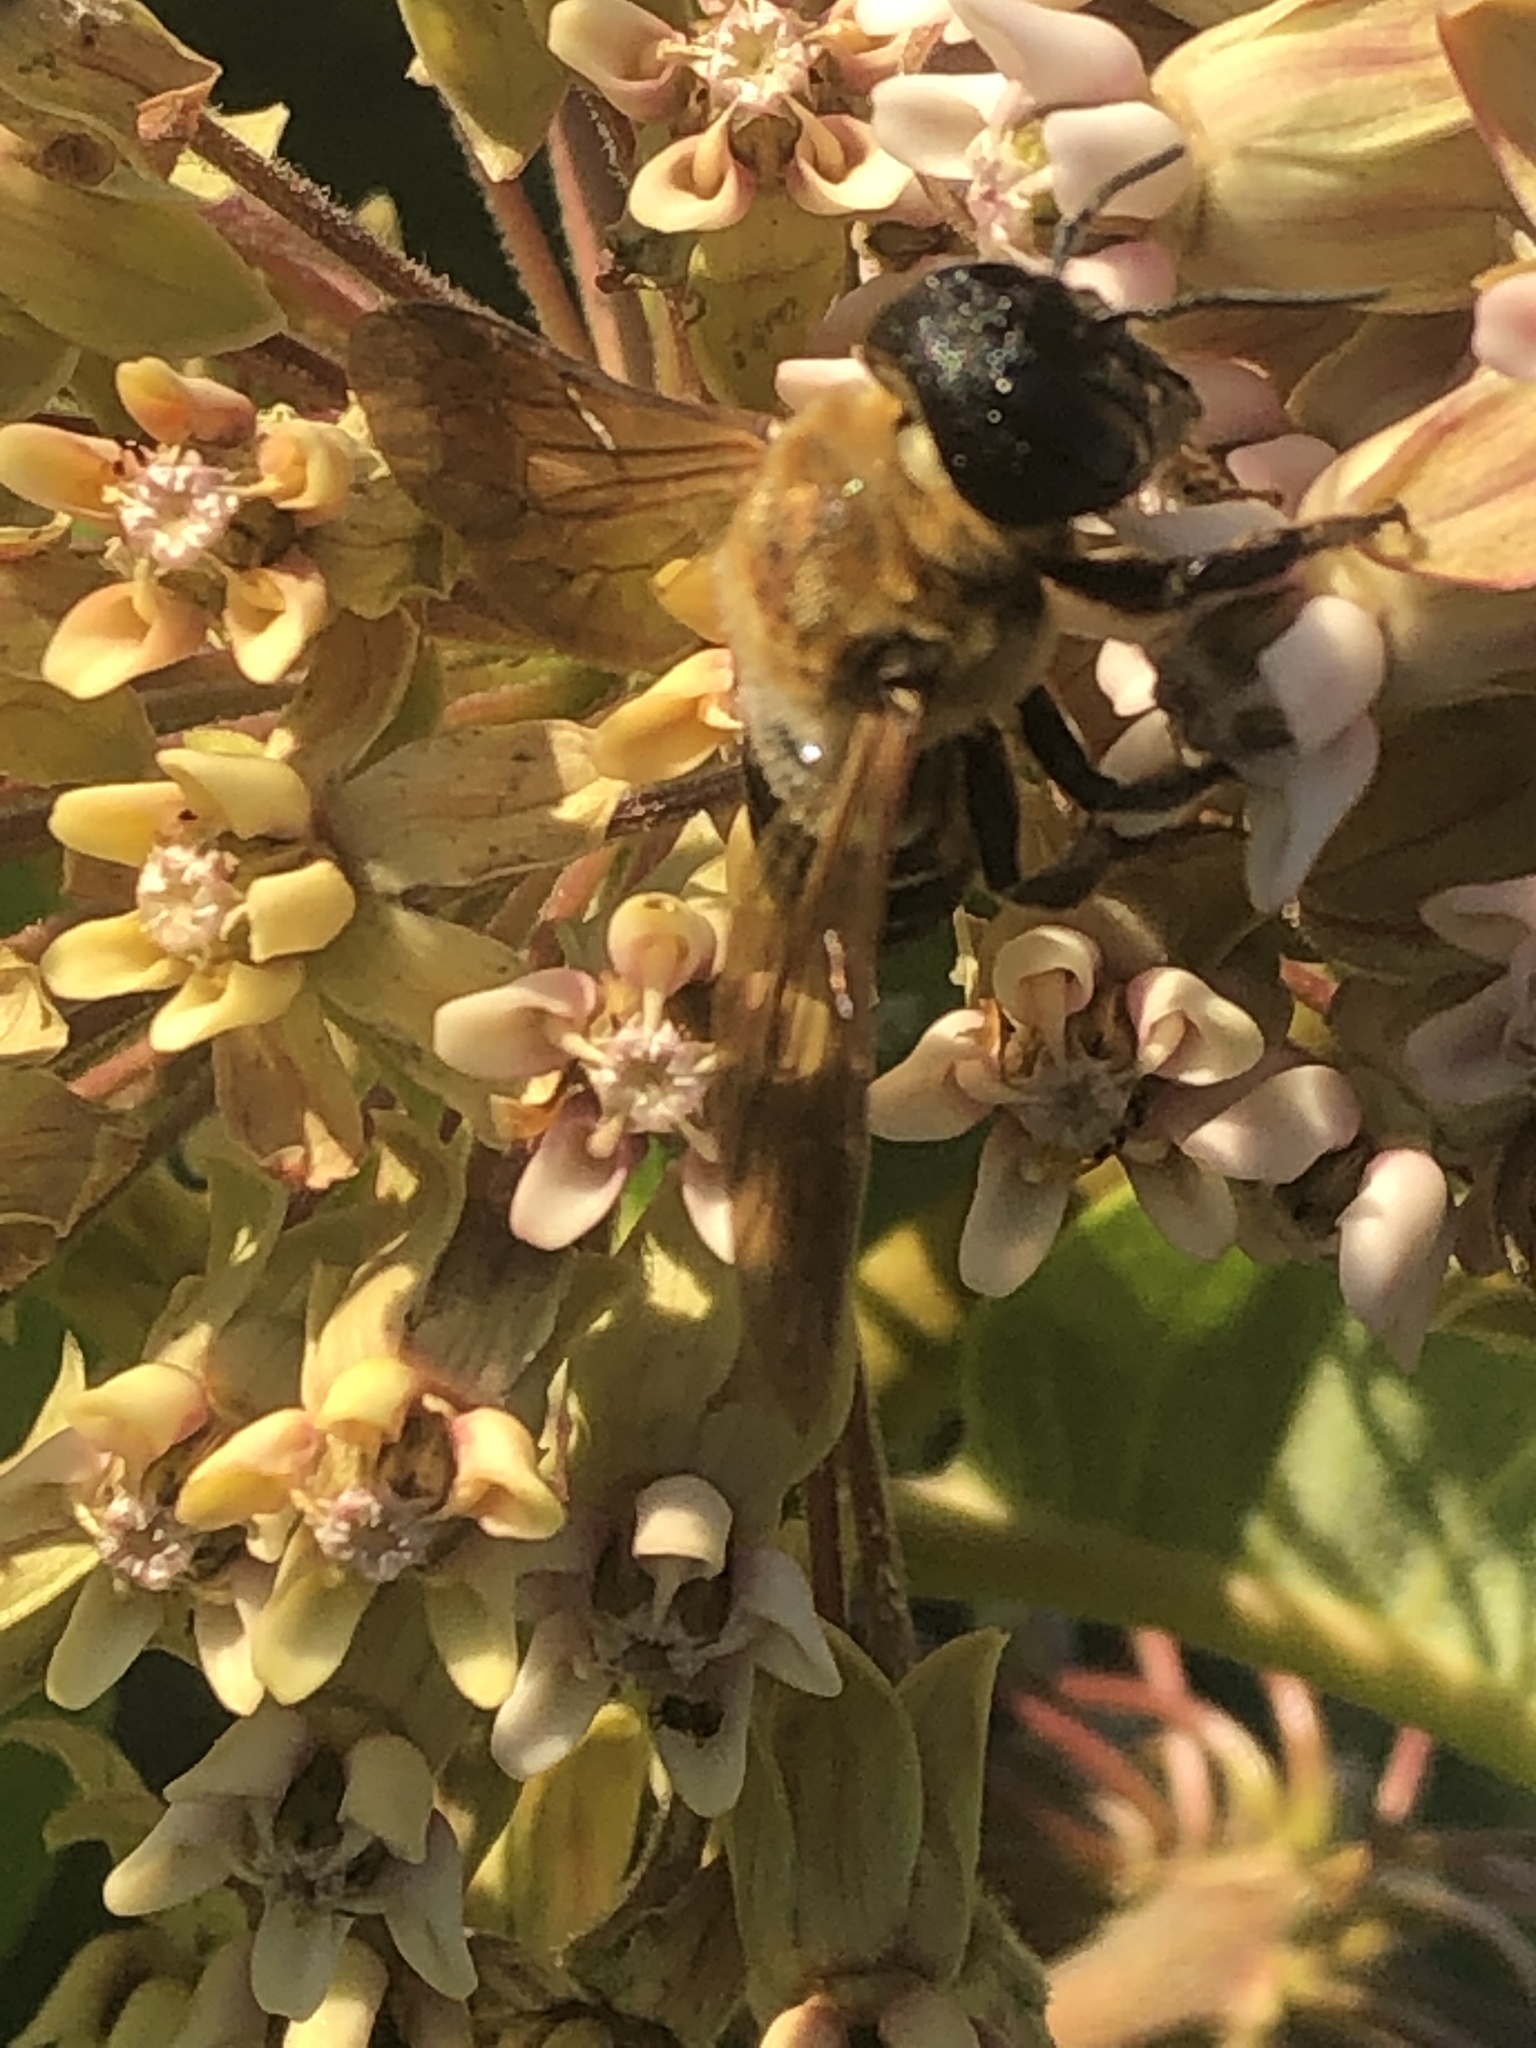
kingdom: Animalia
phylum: Arthropoda
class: Insecta
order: Hymenoptera
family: Megachilidae
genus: Megachile
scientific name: Megachile sculpturalis
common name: Sculptured resin bee
